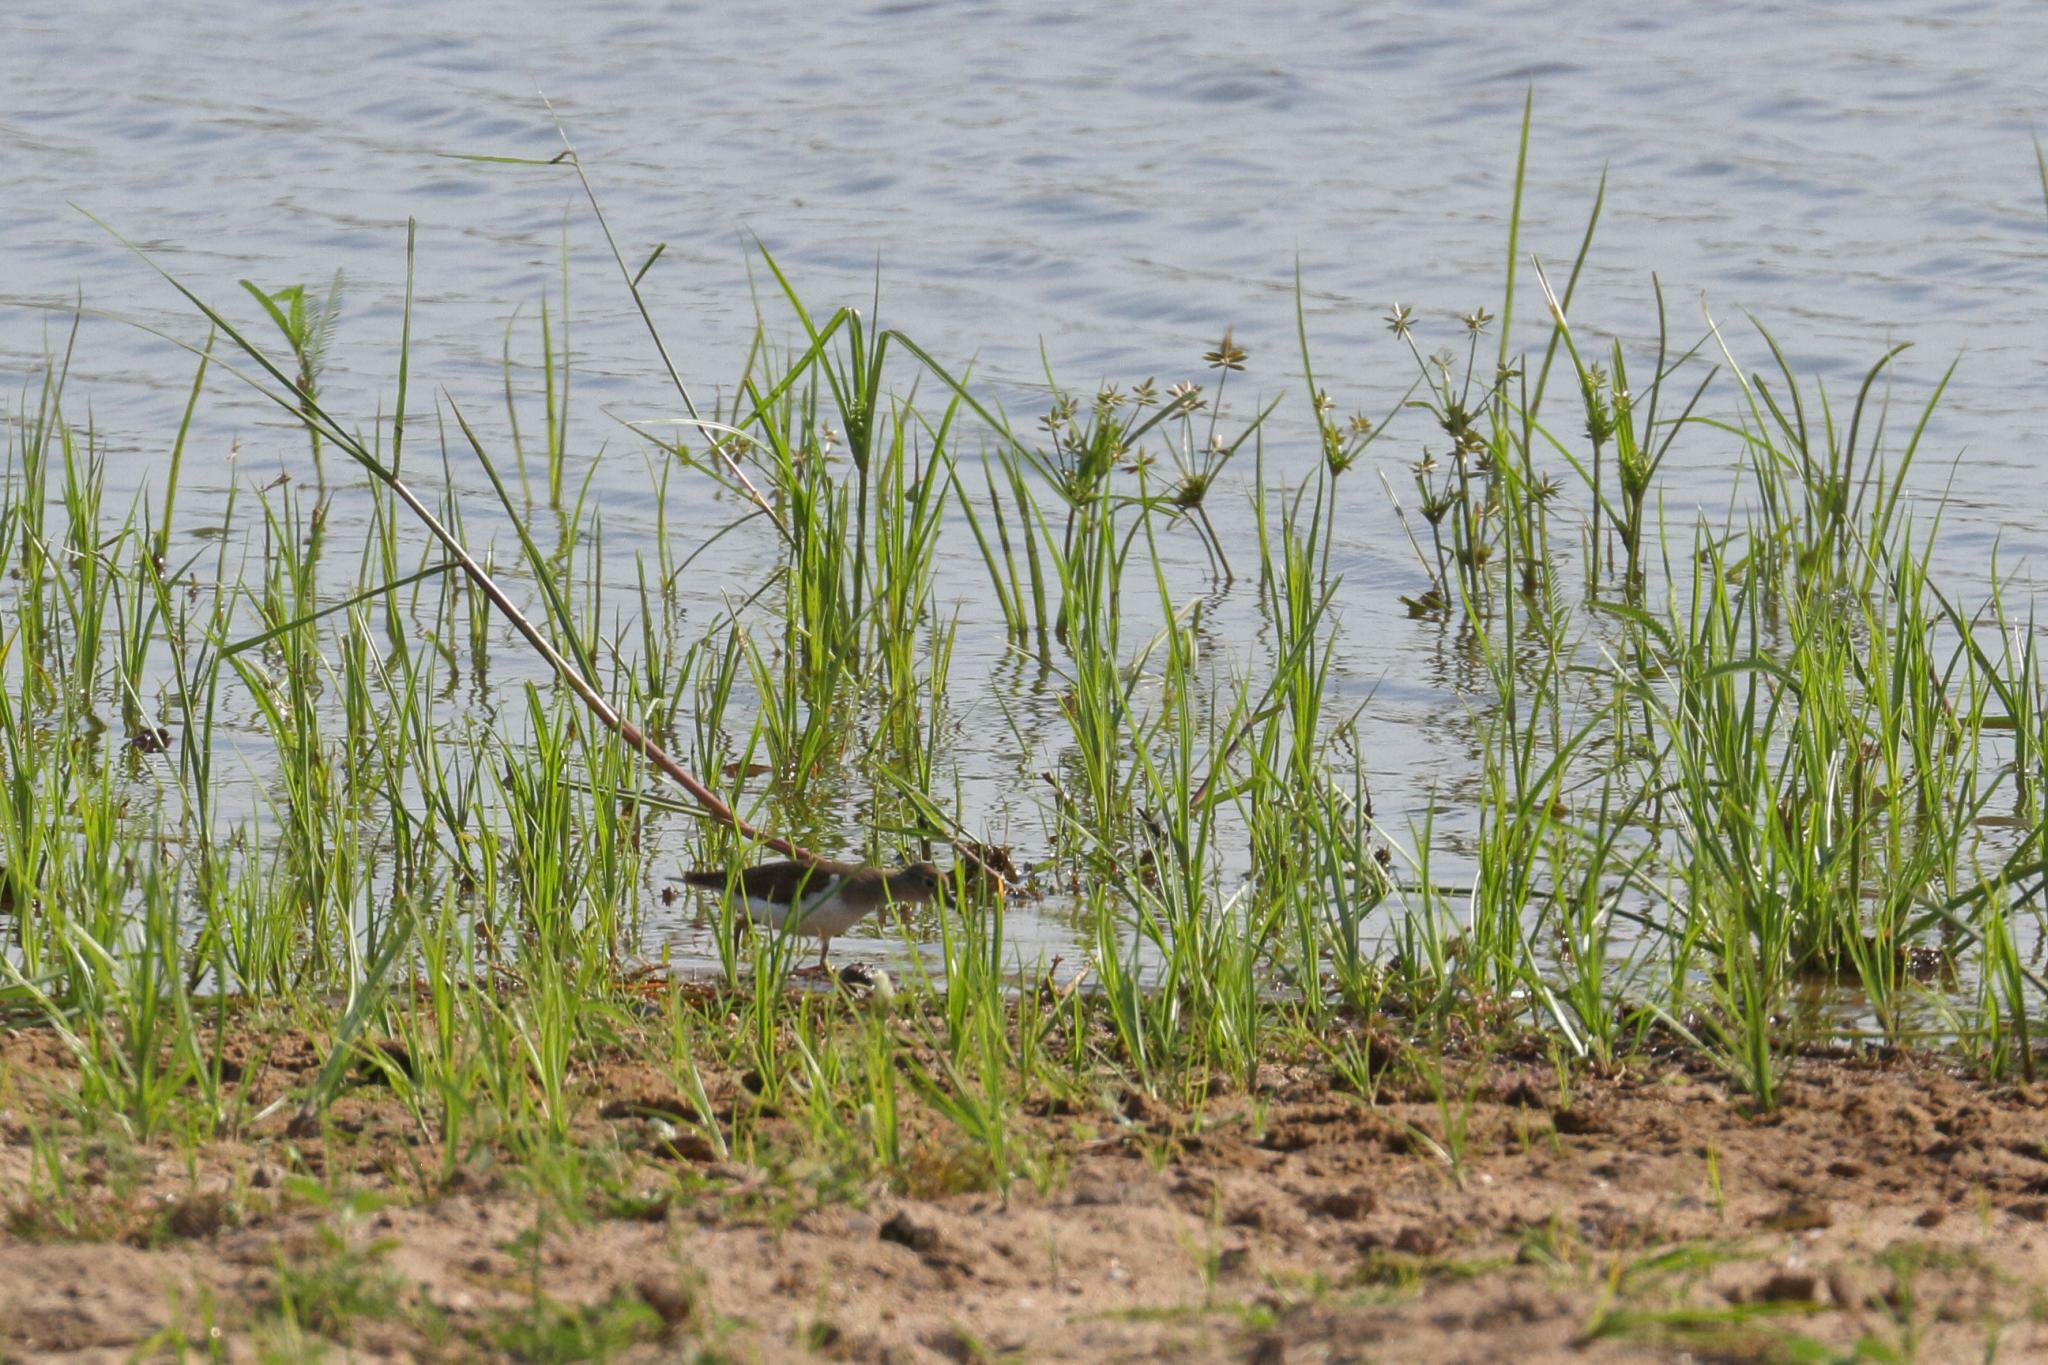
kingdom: Animalia
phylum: Chordata
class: Aves
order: Charadriiformes
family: Scolopacidae
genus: Actitis
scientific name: Actitis hypoleucos
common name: Common sandpiper
